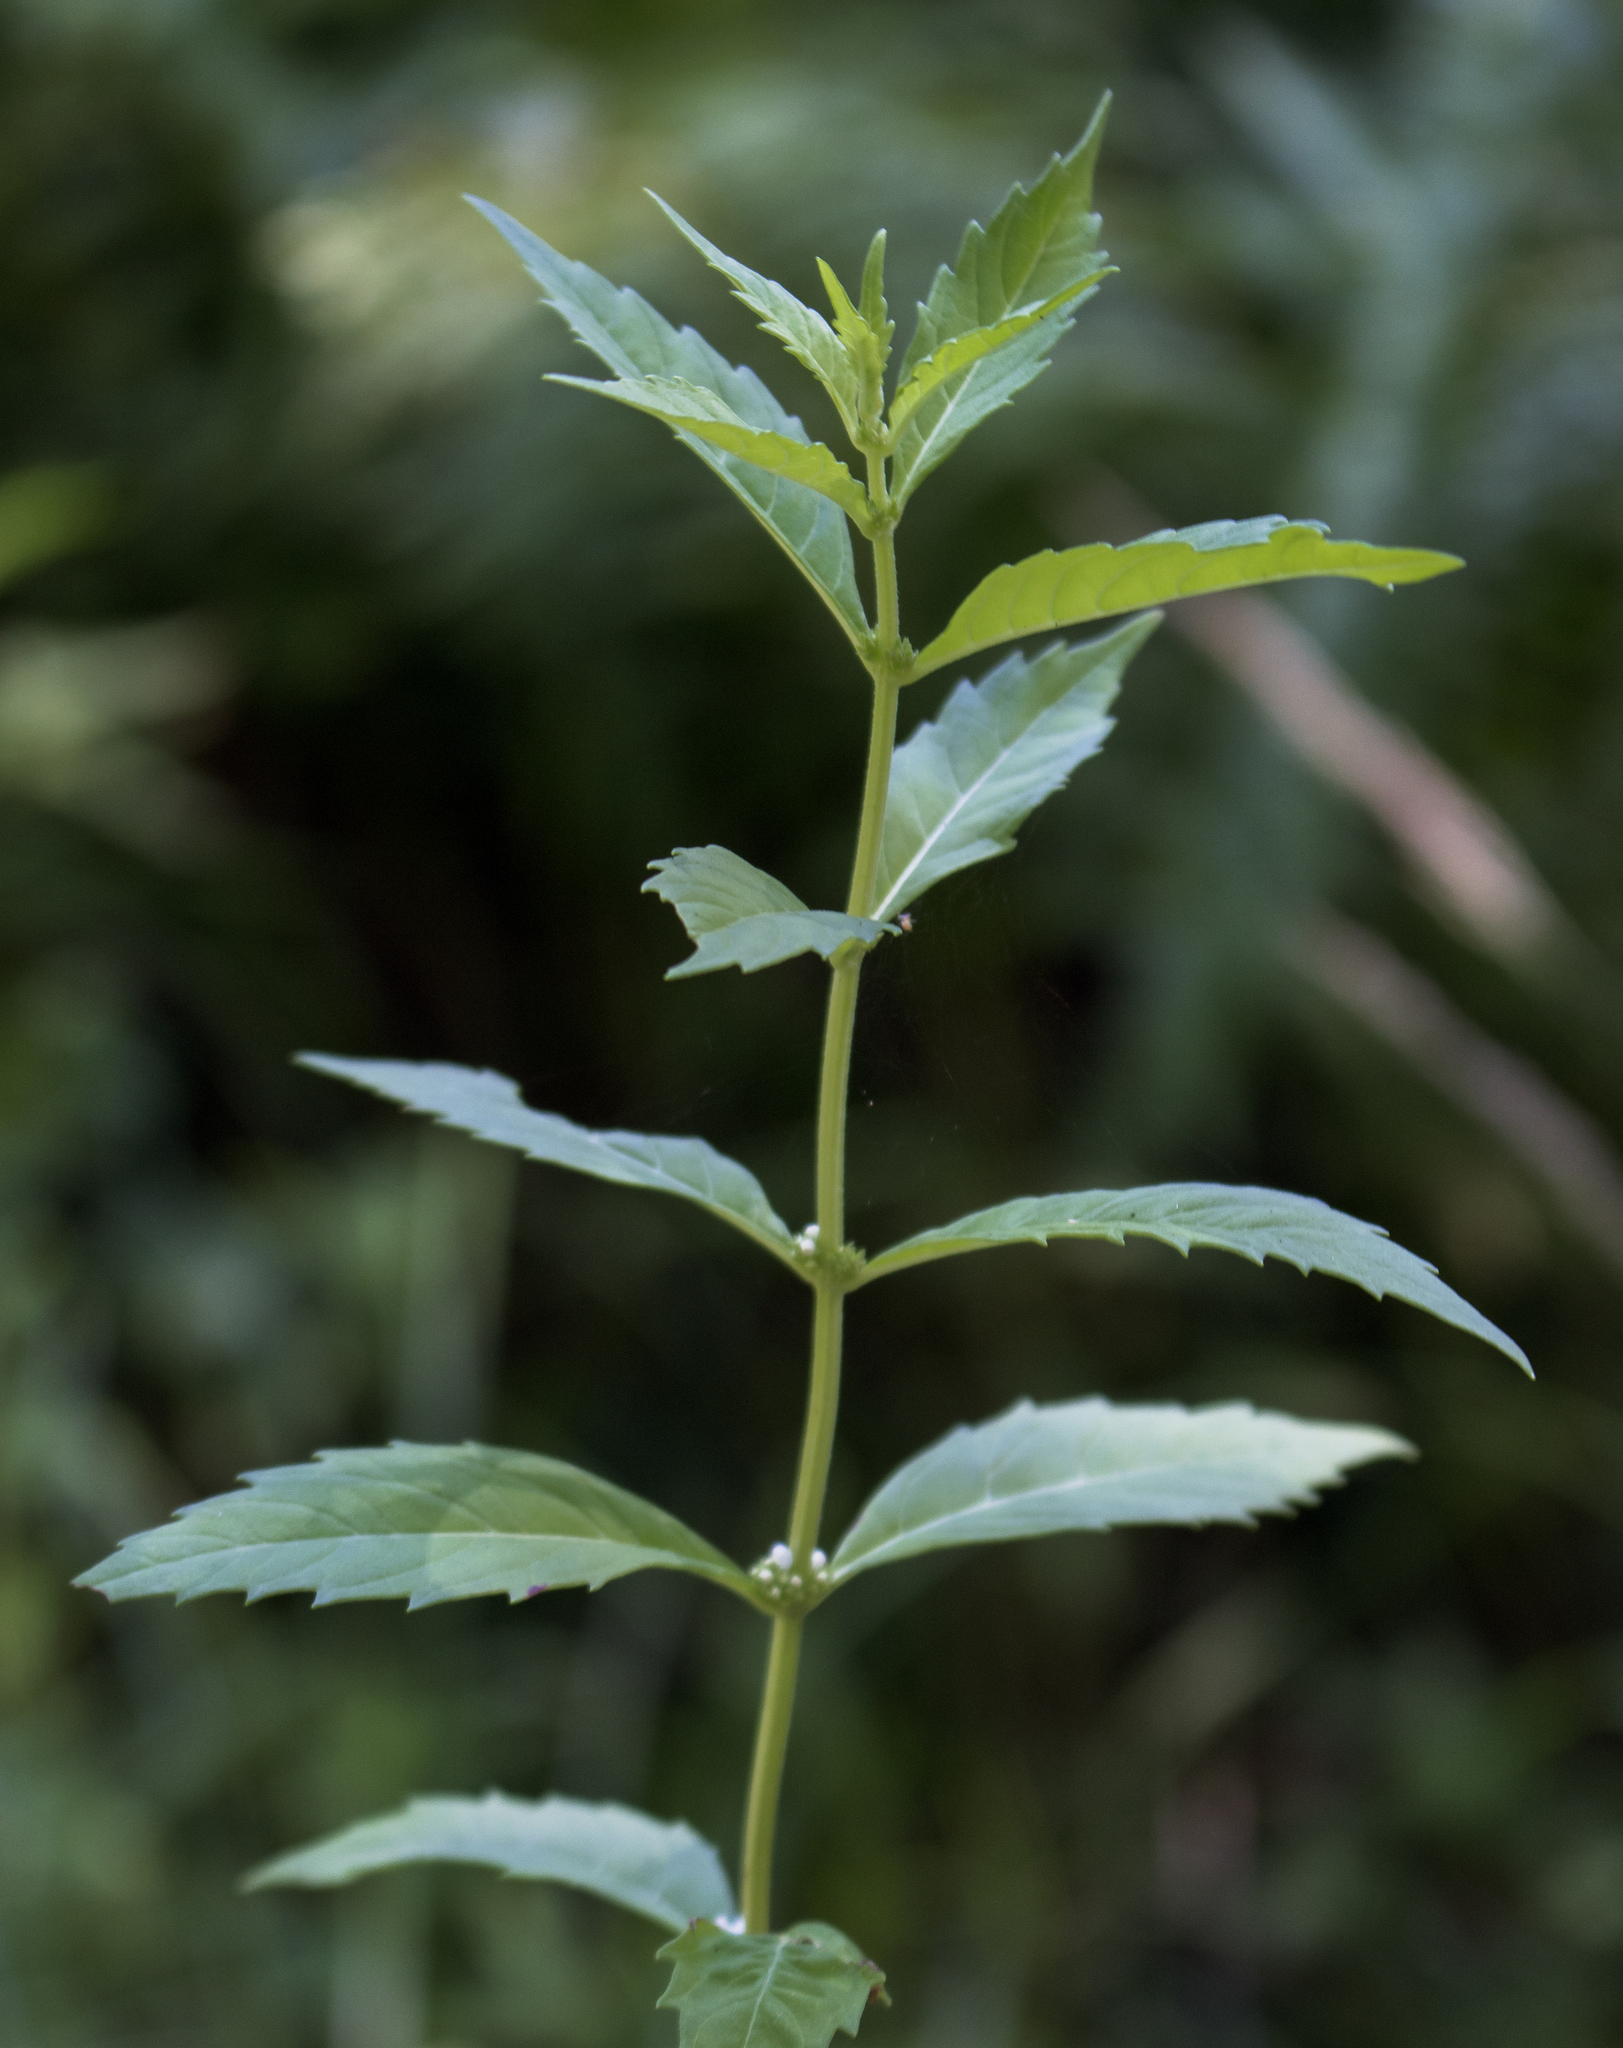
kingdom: Plantae
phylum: Tracheophyta
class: Magnoliopsida
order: Lamiales
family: Lamiaceae
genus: Lycopus
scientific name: Lycopus uniflorus
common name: Northern bugleweed
